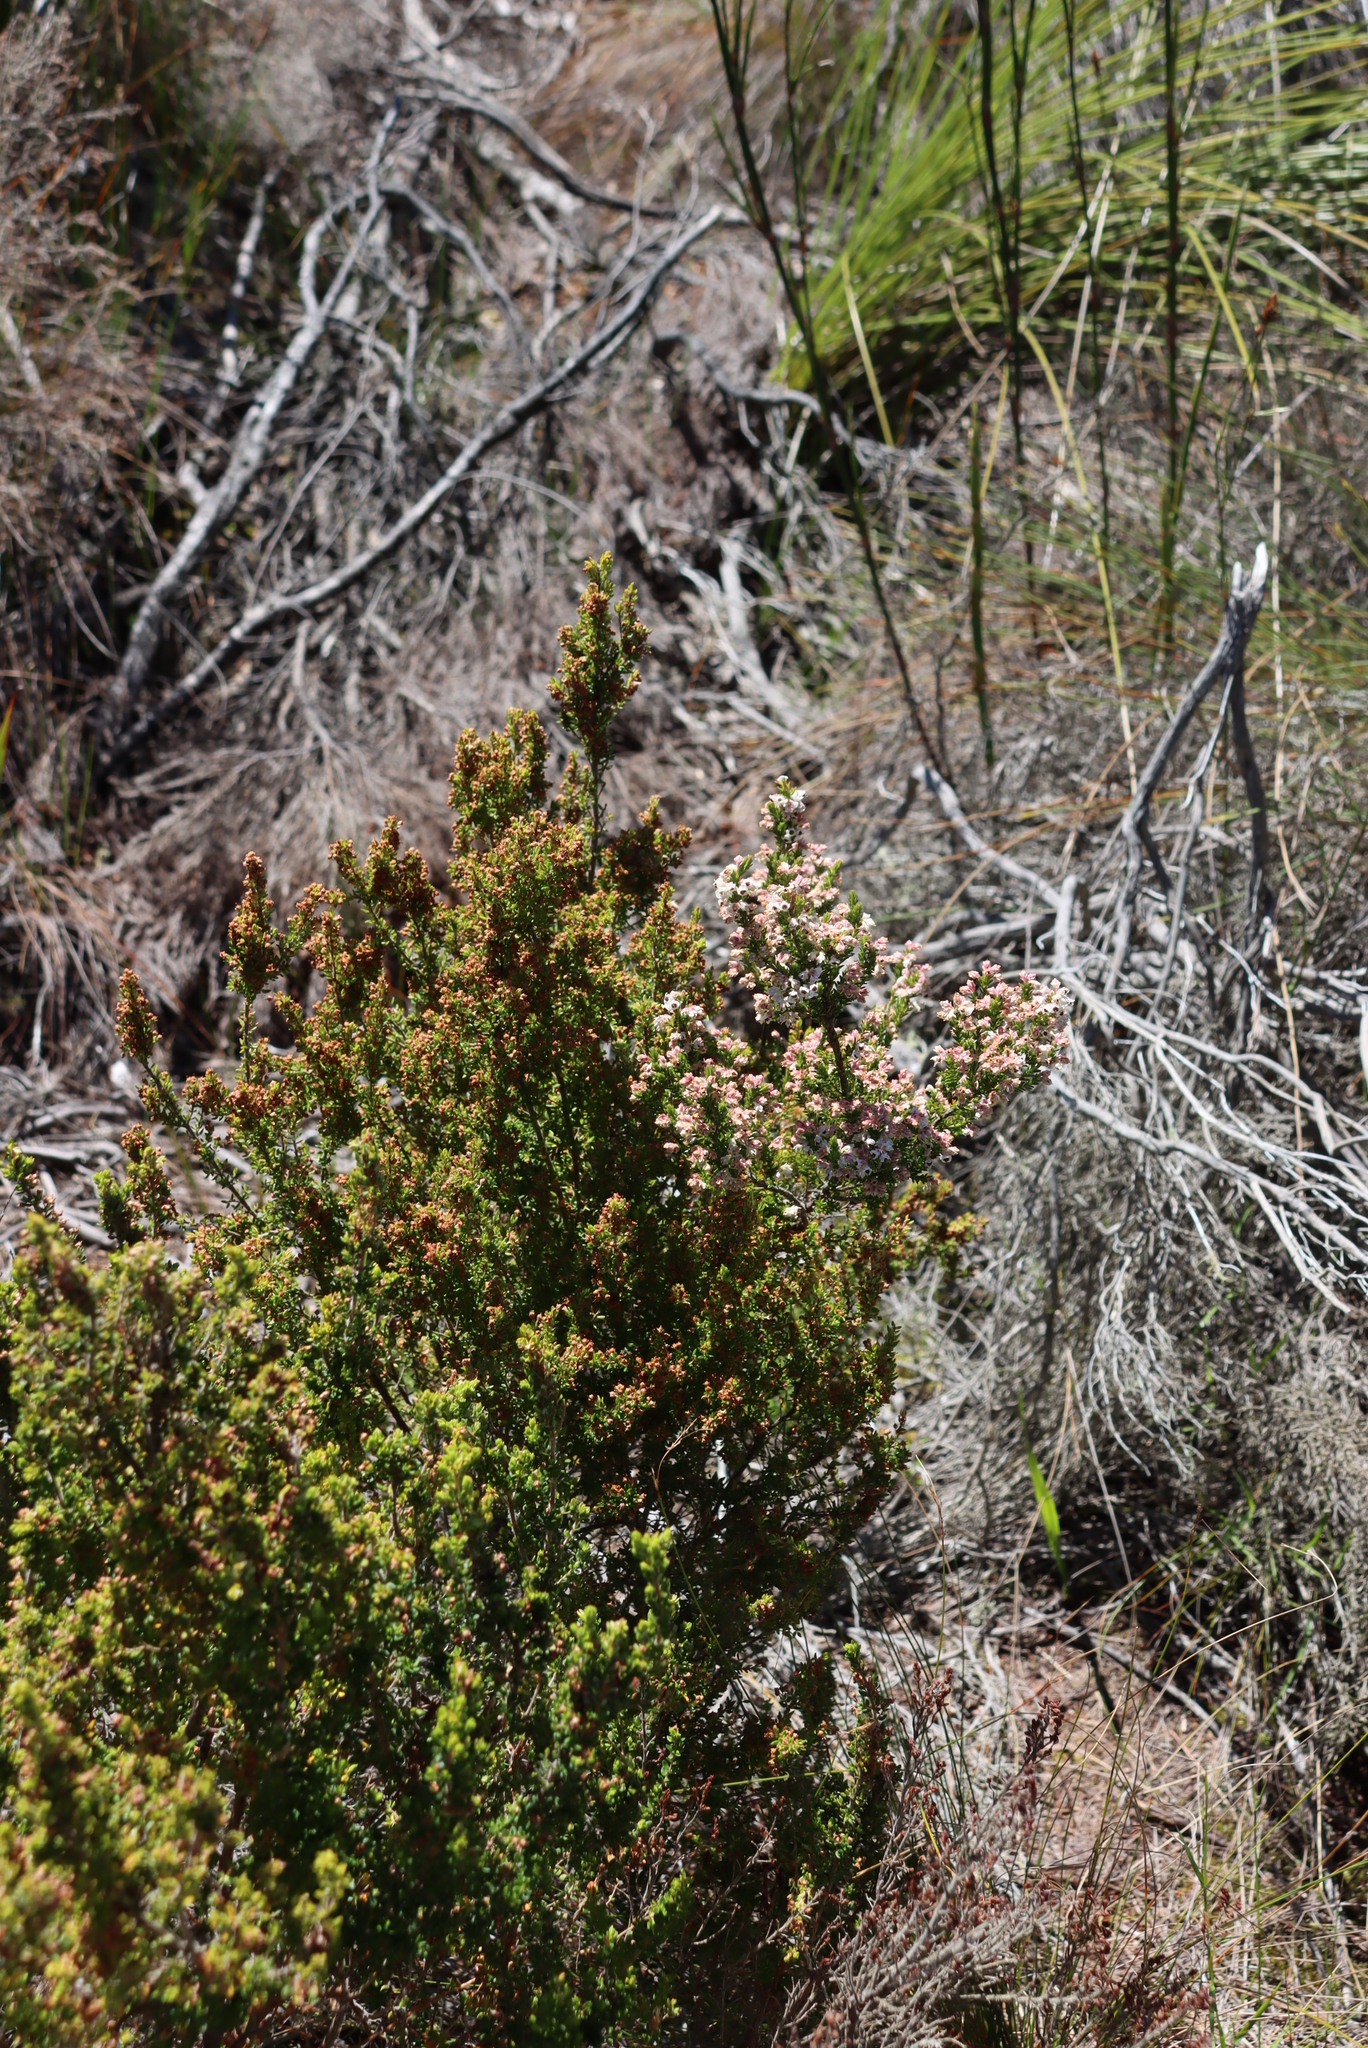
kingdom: Plantae
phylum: Tracheophyta
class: Magnoliopsida
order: Ericales
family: Ericaceae
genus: Erica
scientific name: Erica calycina
